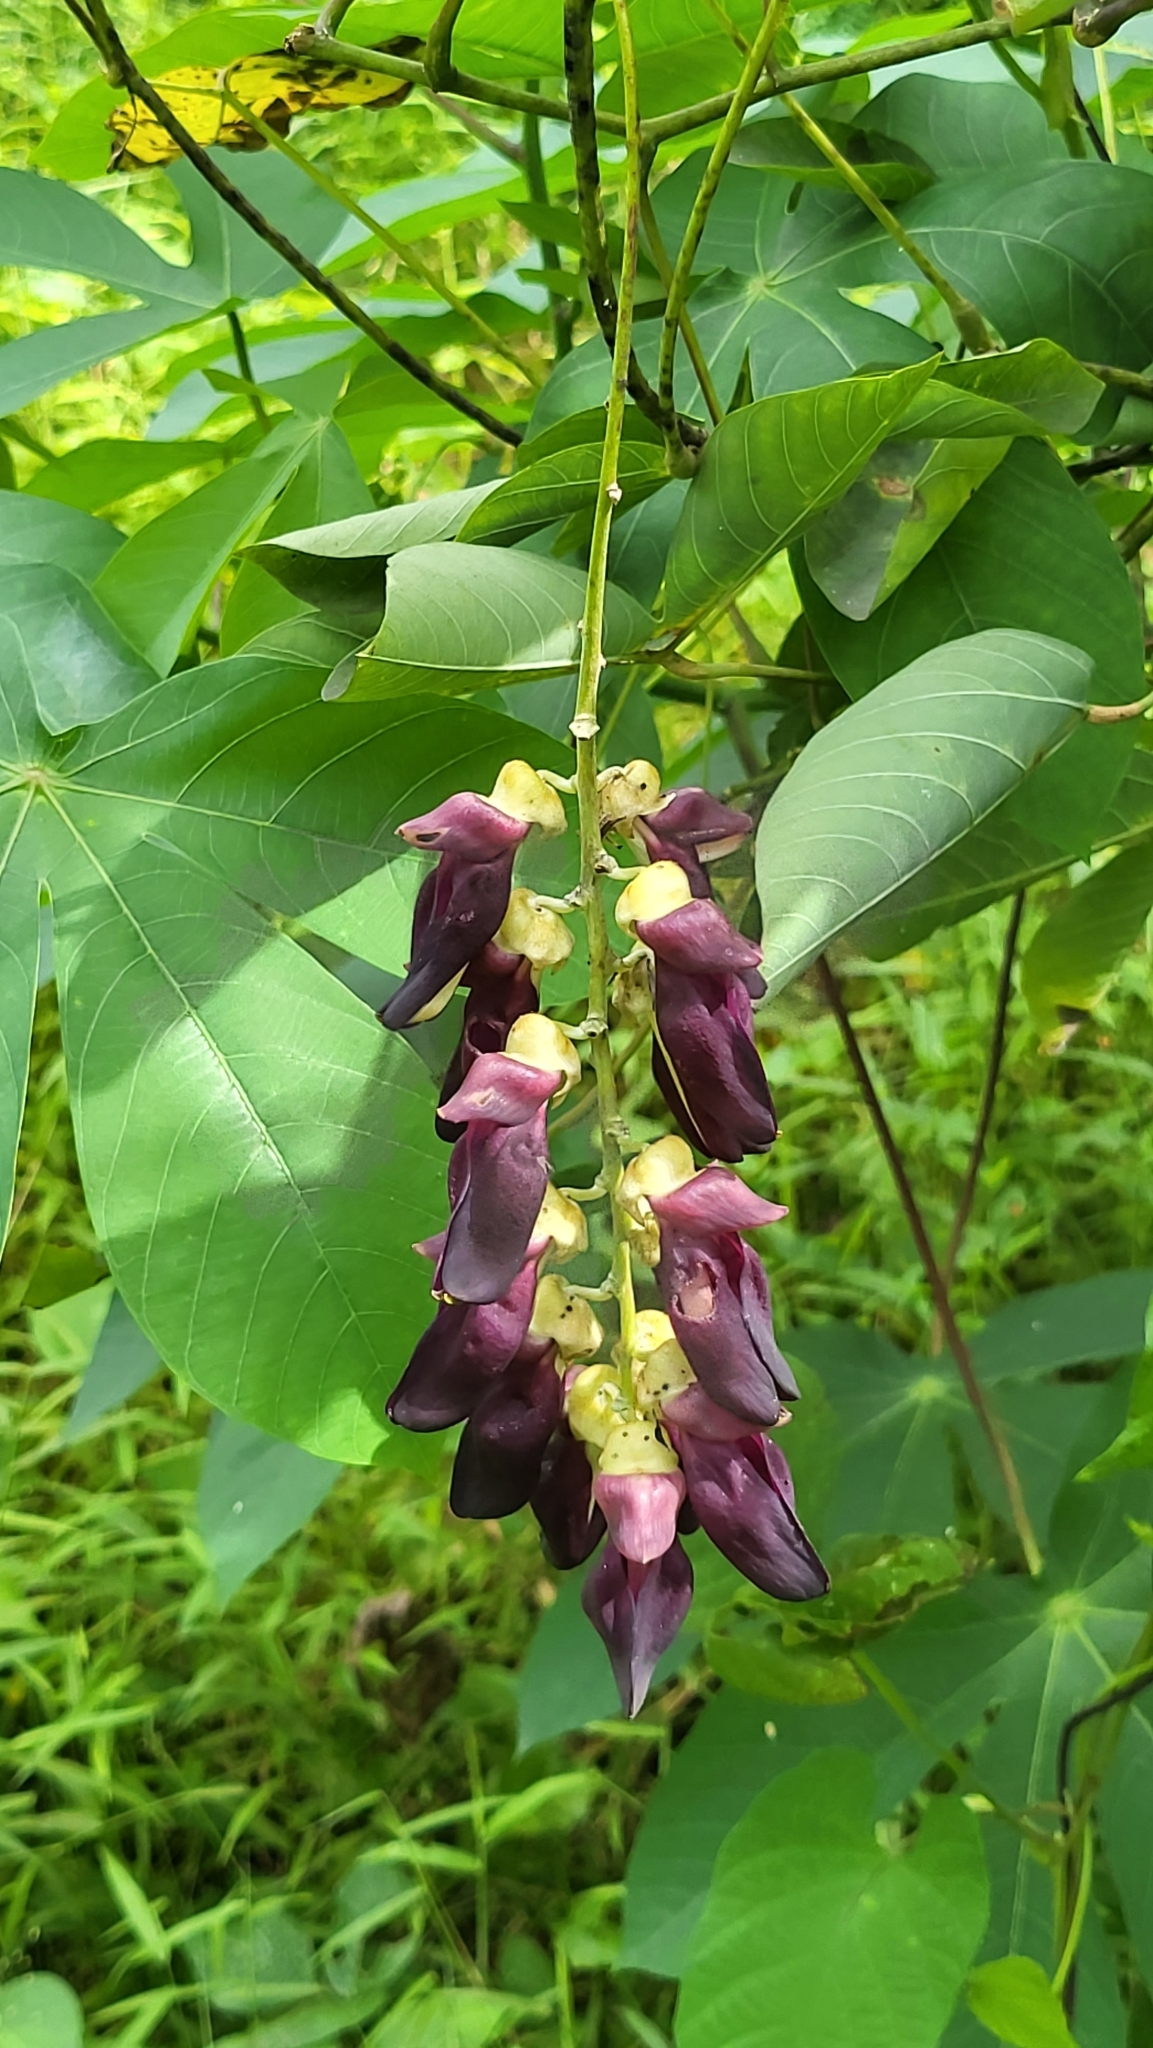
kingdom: Plantae
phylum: Tracheophyta
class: Magnoliopsida
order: Fabales
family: Fabaceae
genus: Mucuna
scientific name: Mucuna pruriens
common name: Cow-itch
